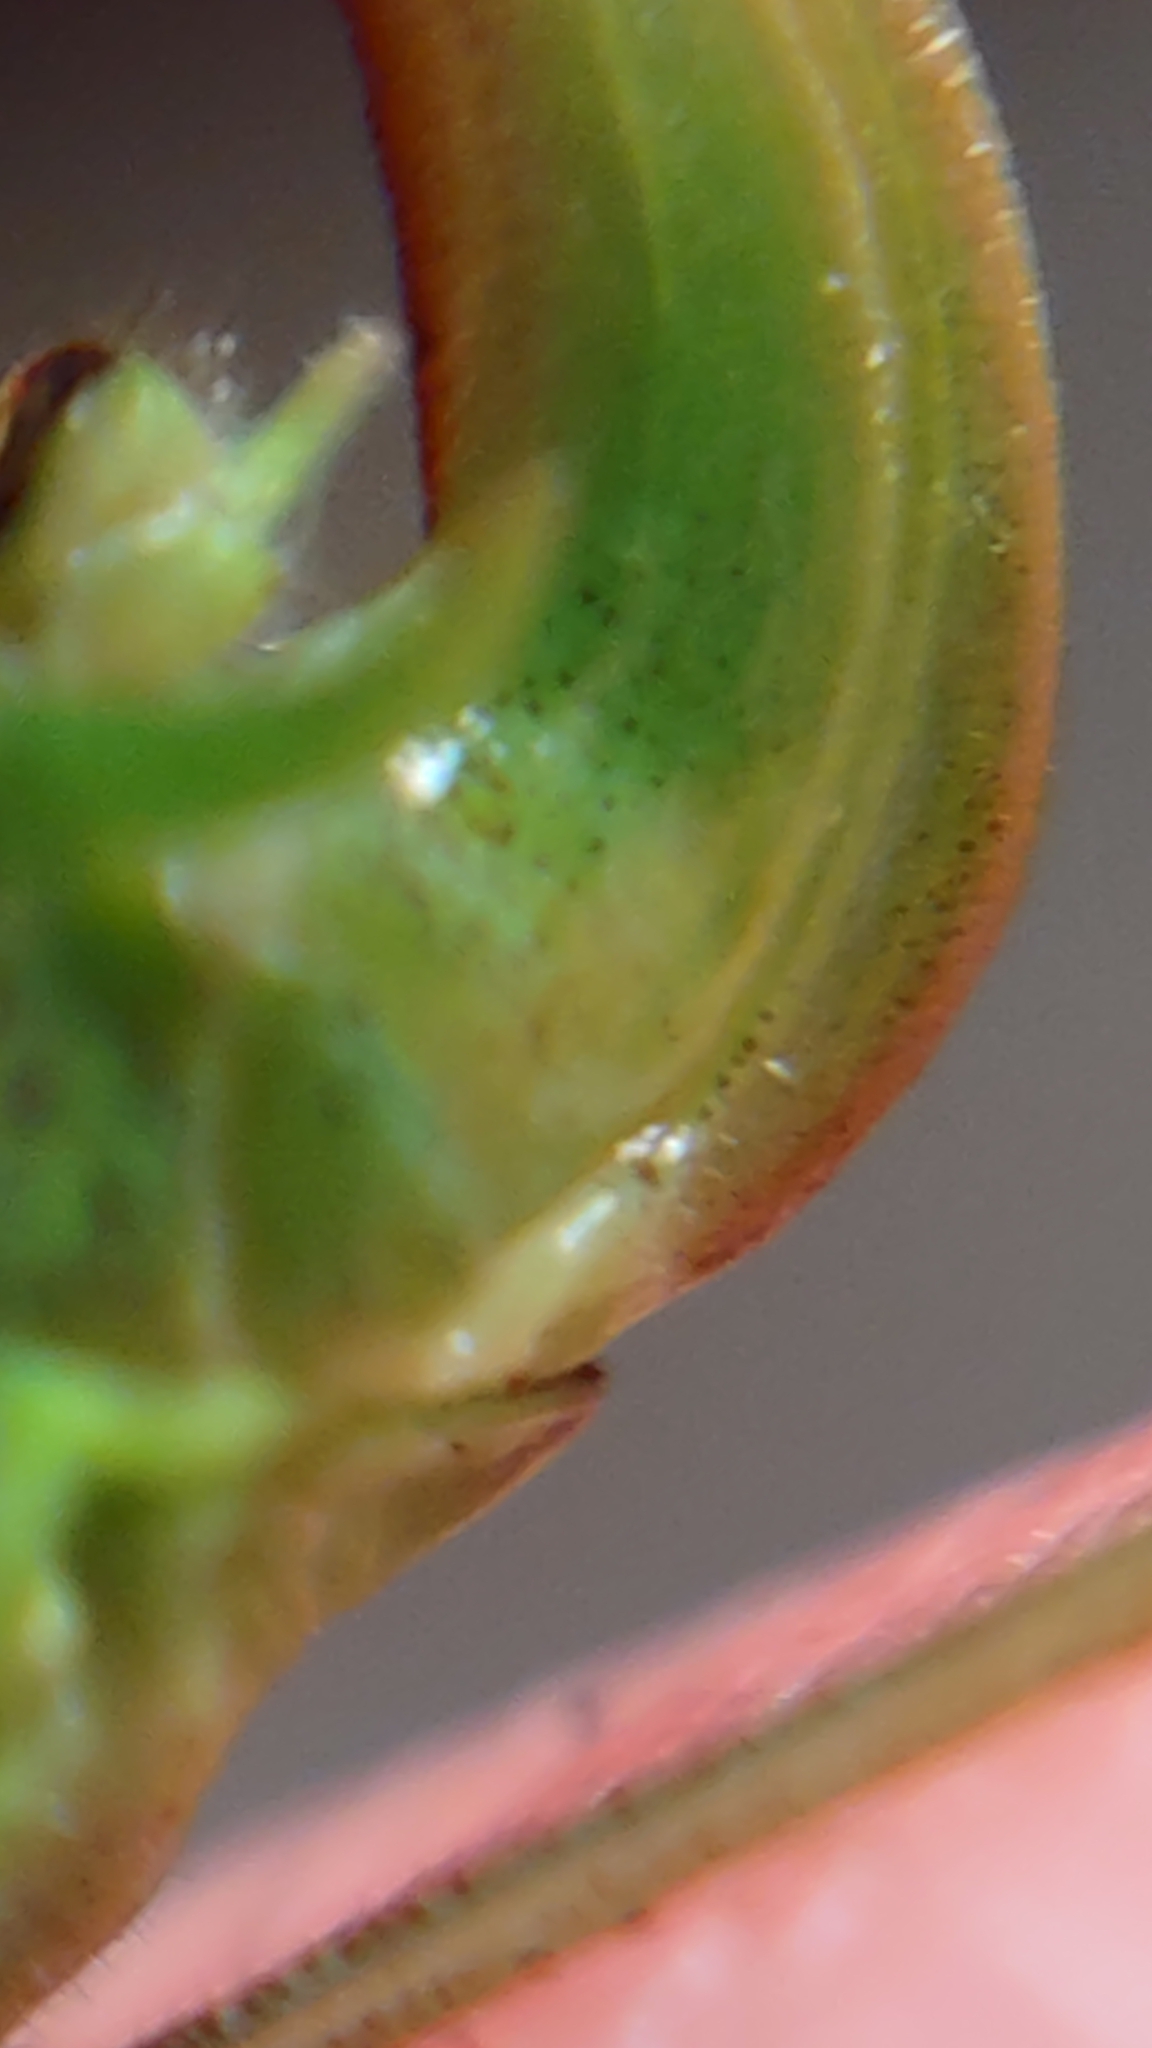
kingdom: Animalia
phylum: Arthropoda
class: Insecta
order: Orthoptera
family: Tettigoniidae
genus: Phaneroptera
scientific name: Phaneroptera falcata
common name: Sickle-bearing bush-cricket
